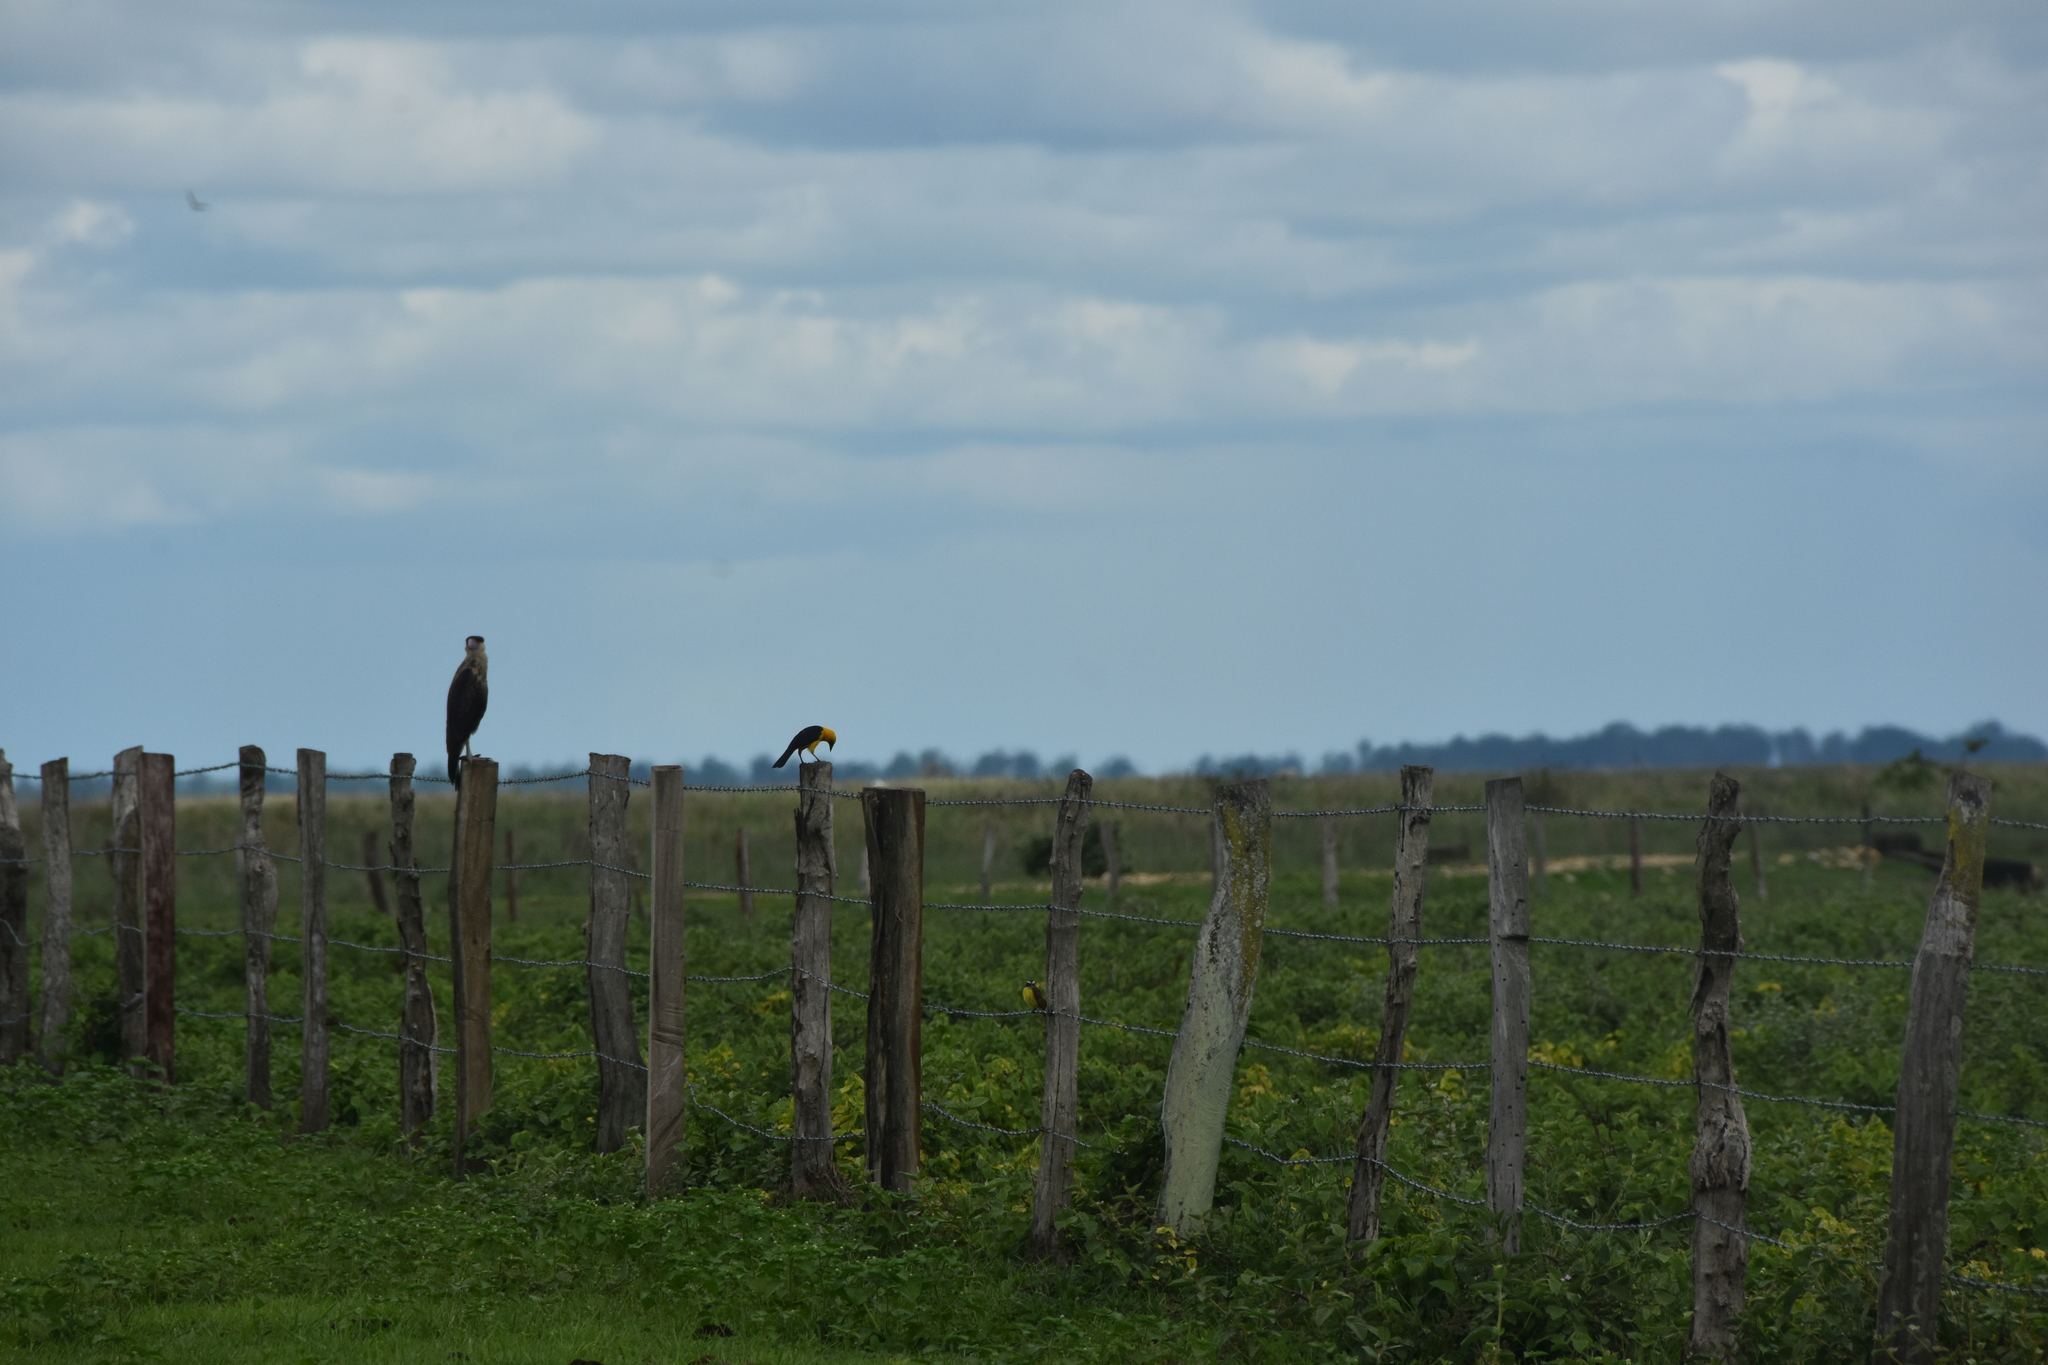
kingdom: Animalia
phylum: Chordata
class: Aves
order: Passeriformes
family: Icteridae
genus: Gymnomystax
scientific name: Gymnomystax mexicanus
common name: Oriole blackbird
